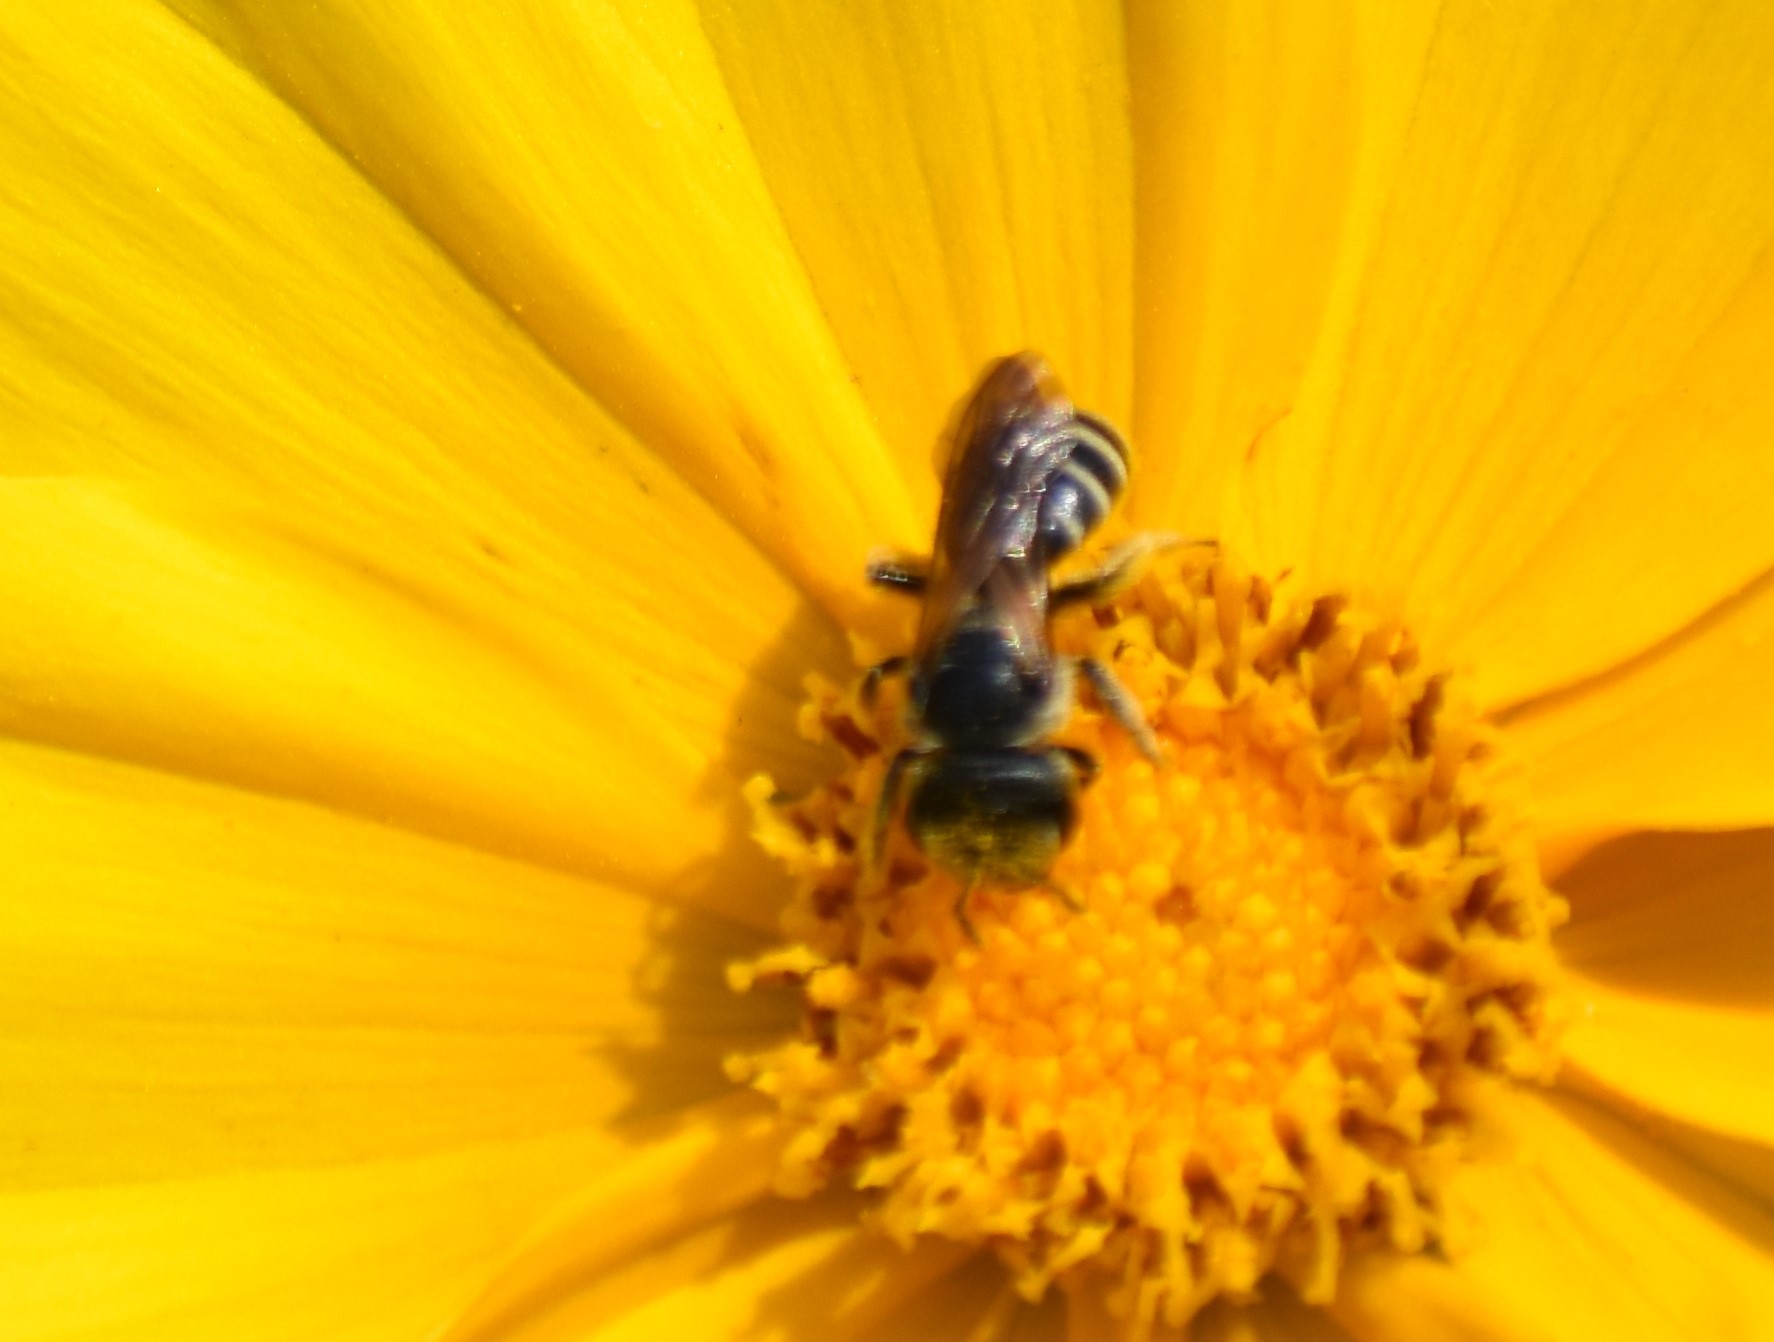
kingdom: Animalia
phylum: Arthropoda
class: Insecta
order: Hymenoptera
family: Halictidae
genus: Halictus
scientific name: Halictus ligatus
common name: Ligated furrow bee
